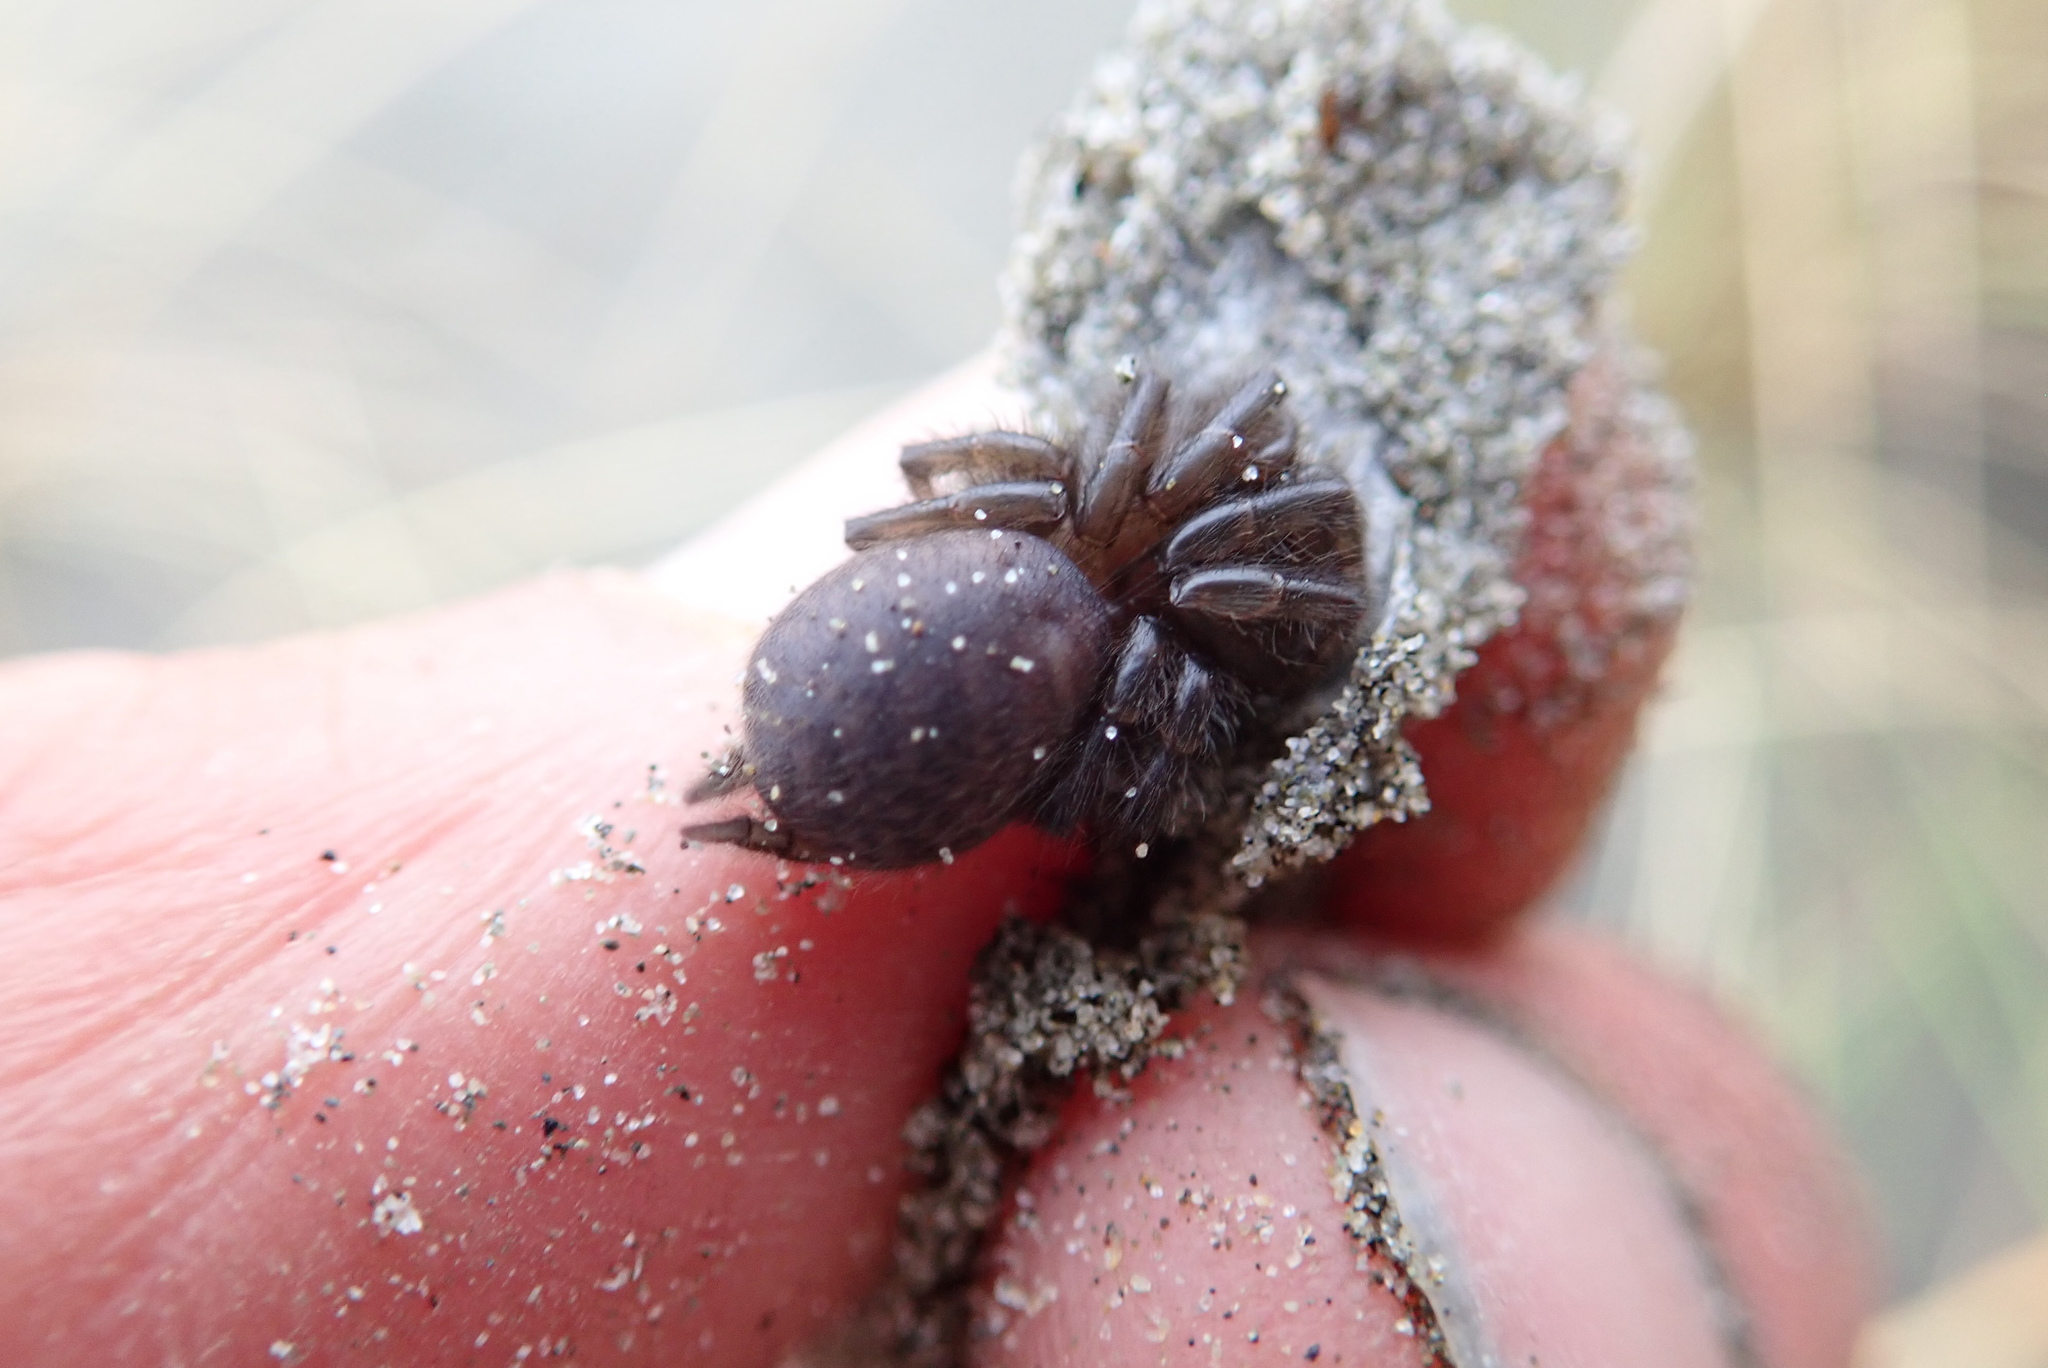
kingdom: Animalia
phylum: Arthropoda
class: Arachnida
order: Araneae
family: Porrhothelidae
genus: Porrhothele
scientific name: Porrhothele antipodiana
